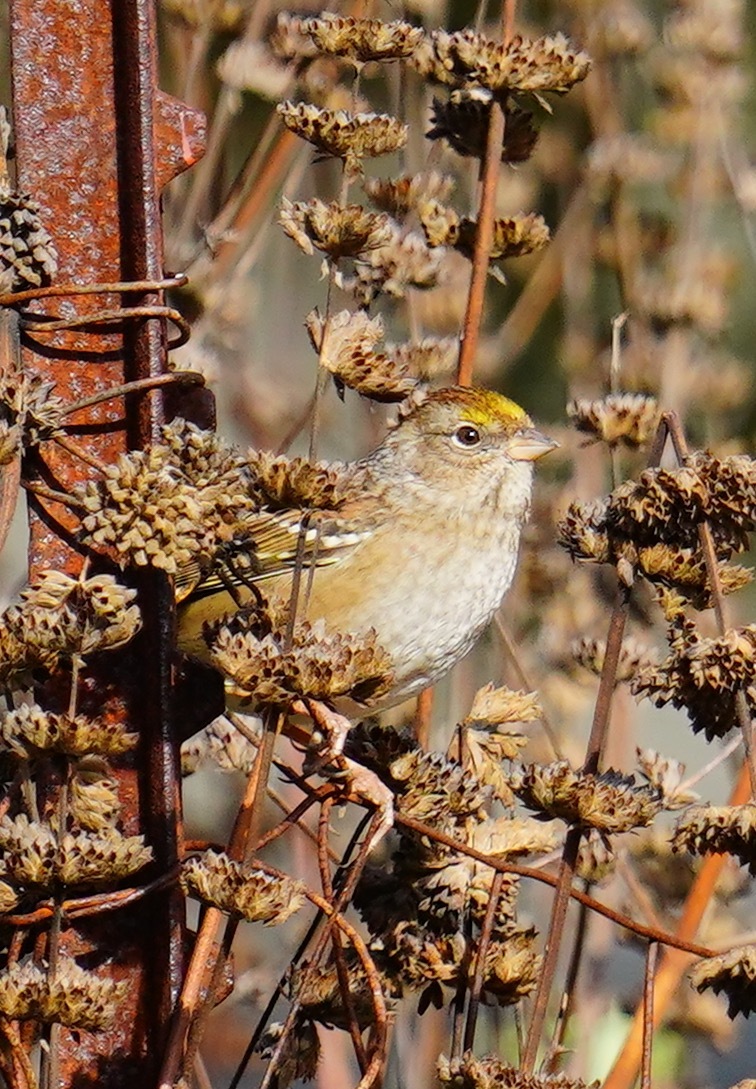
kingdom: Animalia
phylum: Chordata
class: Aves
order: Passeriformes
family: Passerellidae
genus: Zonotrichia
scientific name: Zonotrichia atricapilla
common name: Golden-crowned sparrow
